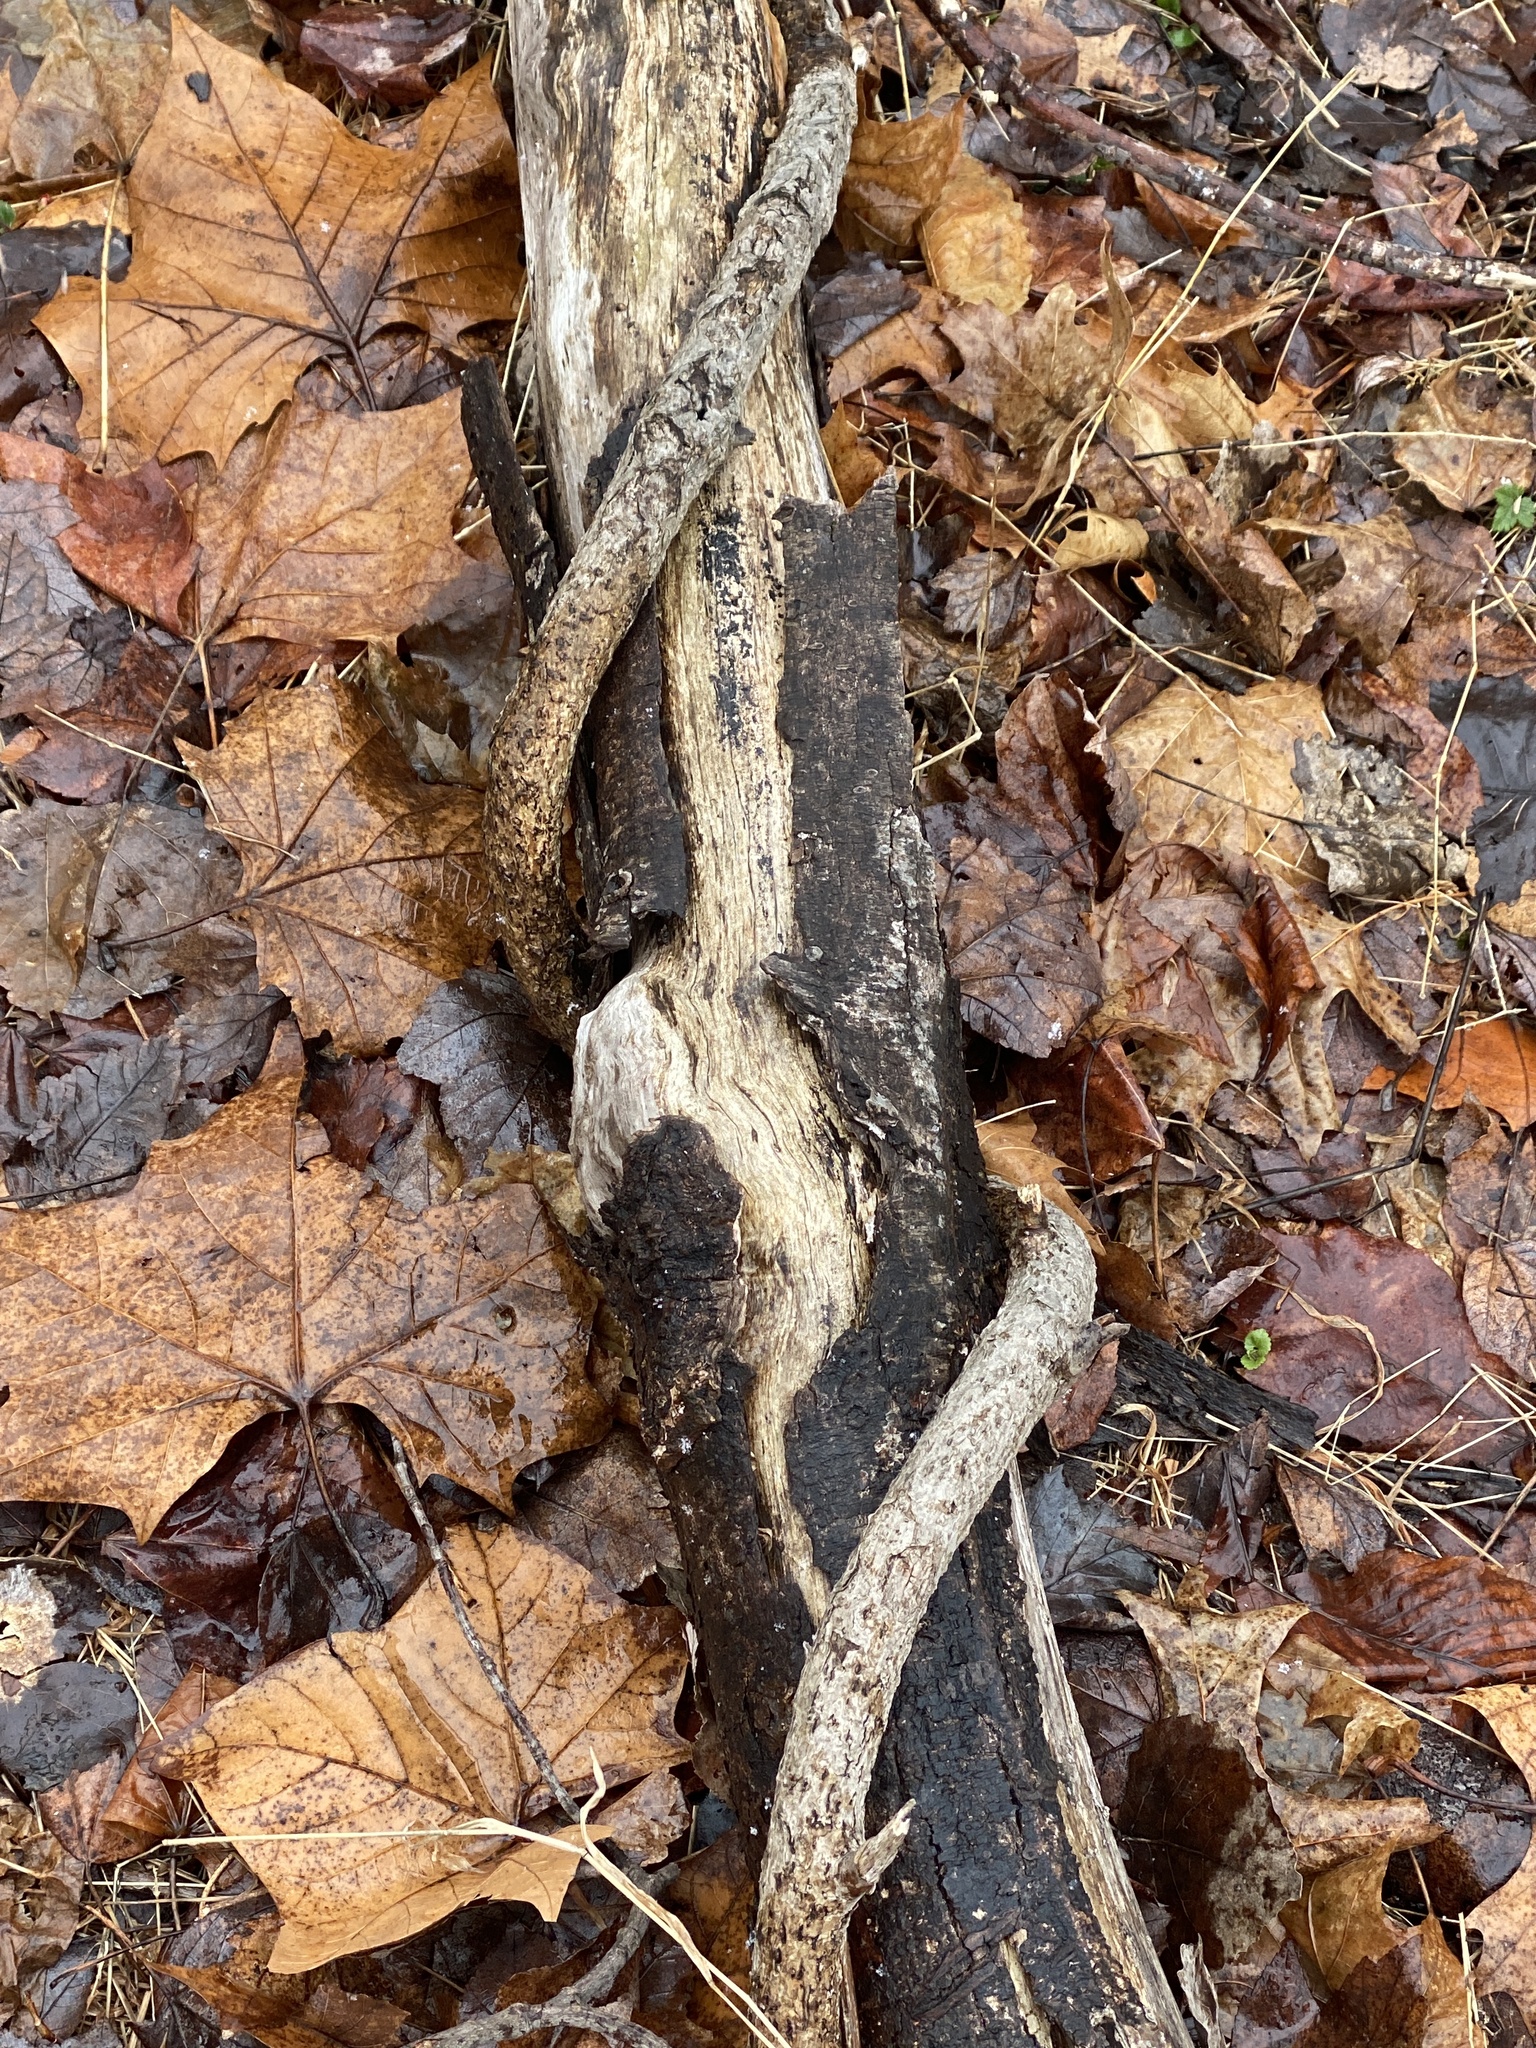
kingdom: Plantae
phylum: Tracheophyta
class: Magnoliopsida
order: Celastrales
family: Celastraceae
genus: Celastrus
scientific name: Celastrus orbiculatus
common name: Oriental bittersweet
